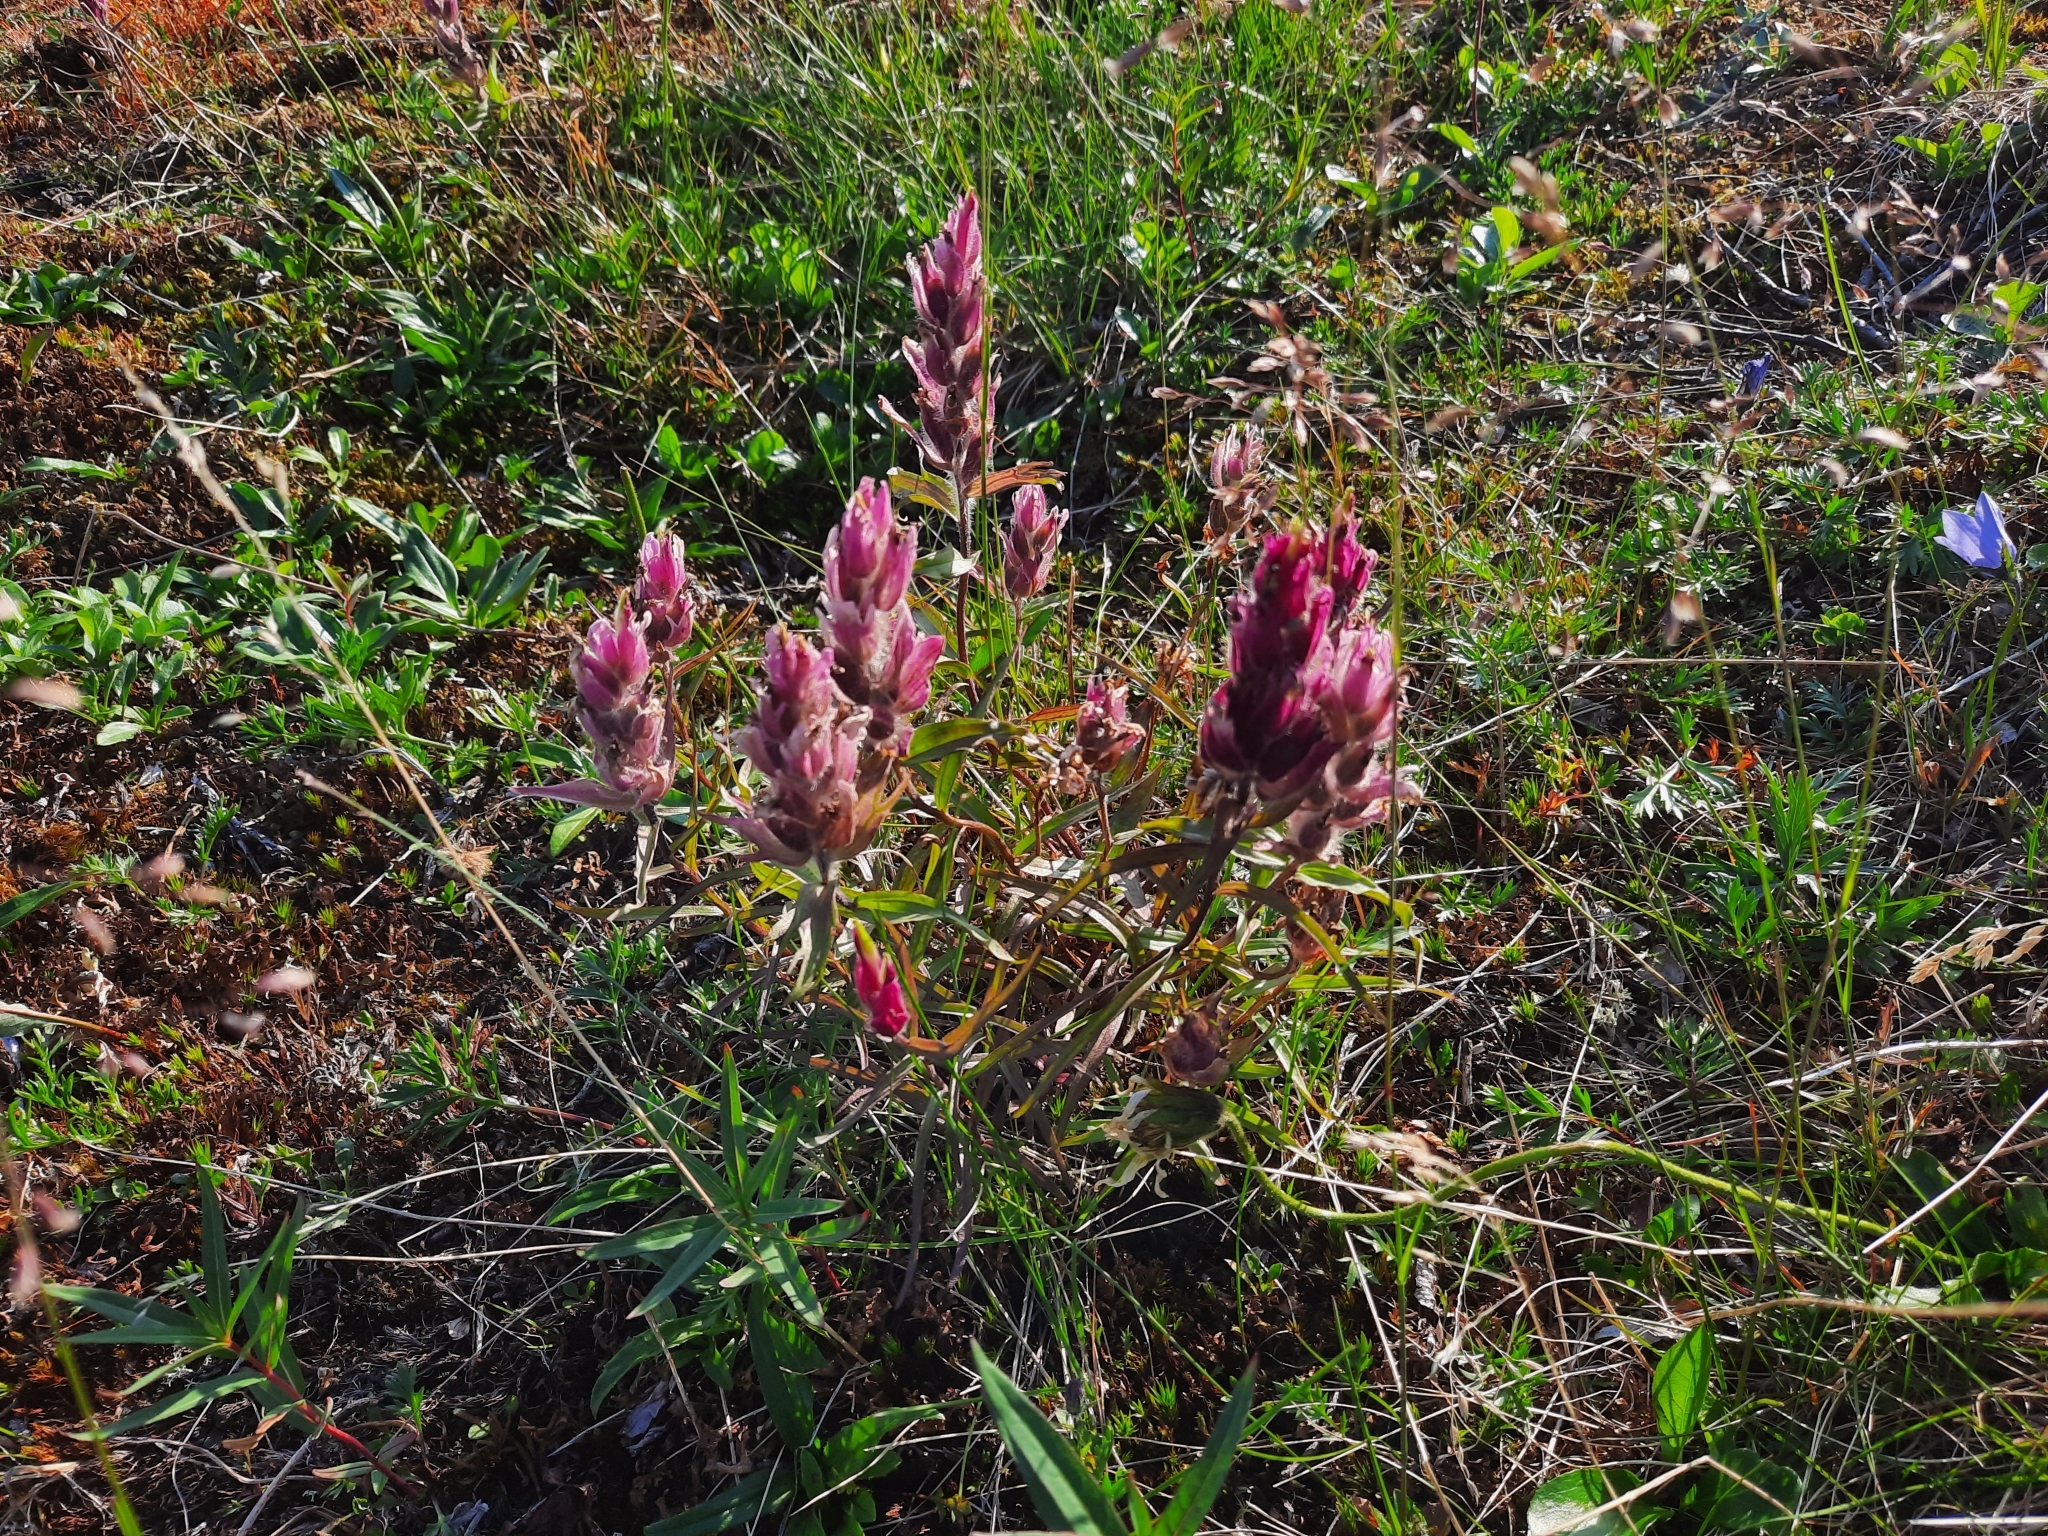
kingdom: Plantae
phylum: Tracheophyta
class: Magnoliopsida
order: Lamiales
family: Orobanchaceae
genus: Castilleja
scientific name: Castilleja elegans
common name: Elegant paintbrush
